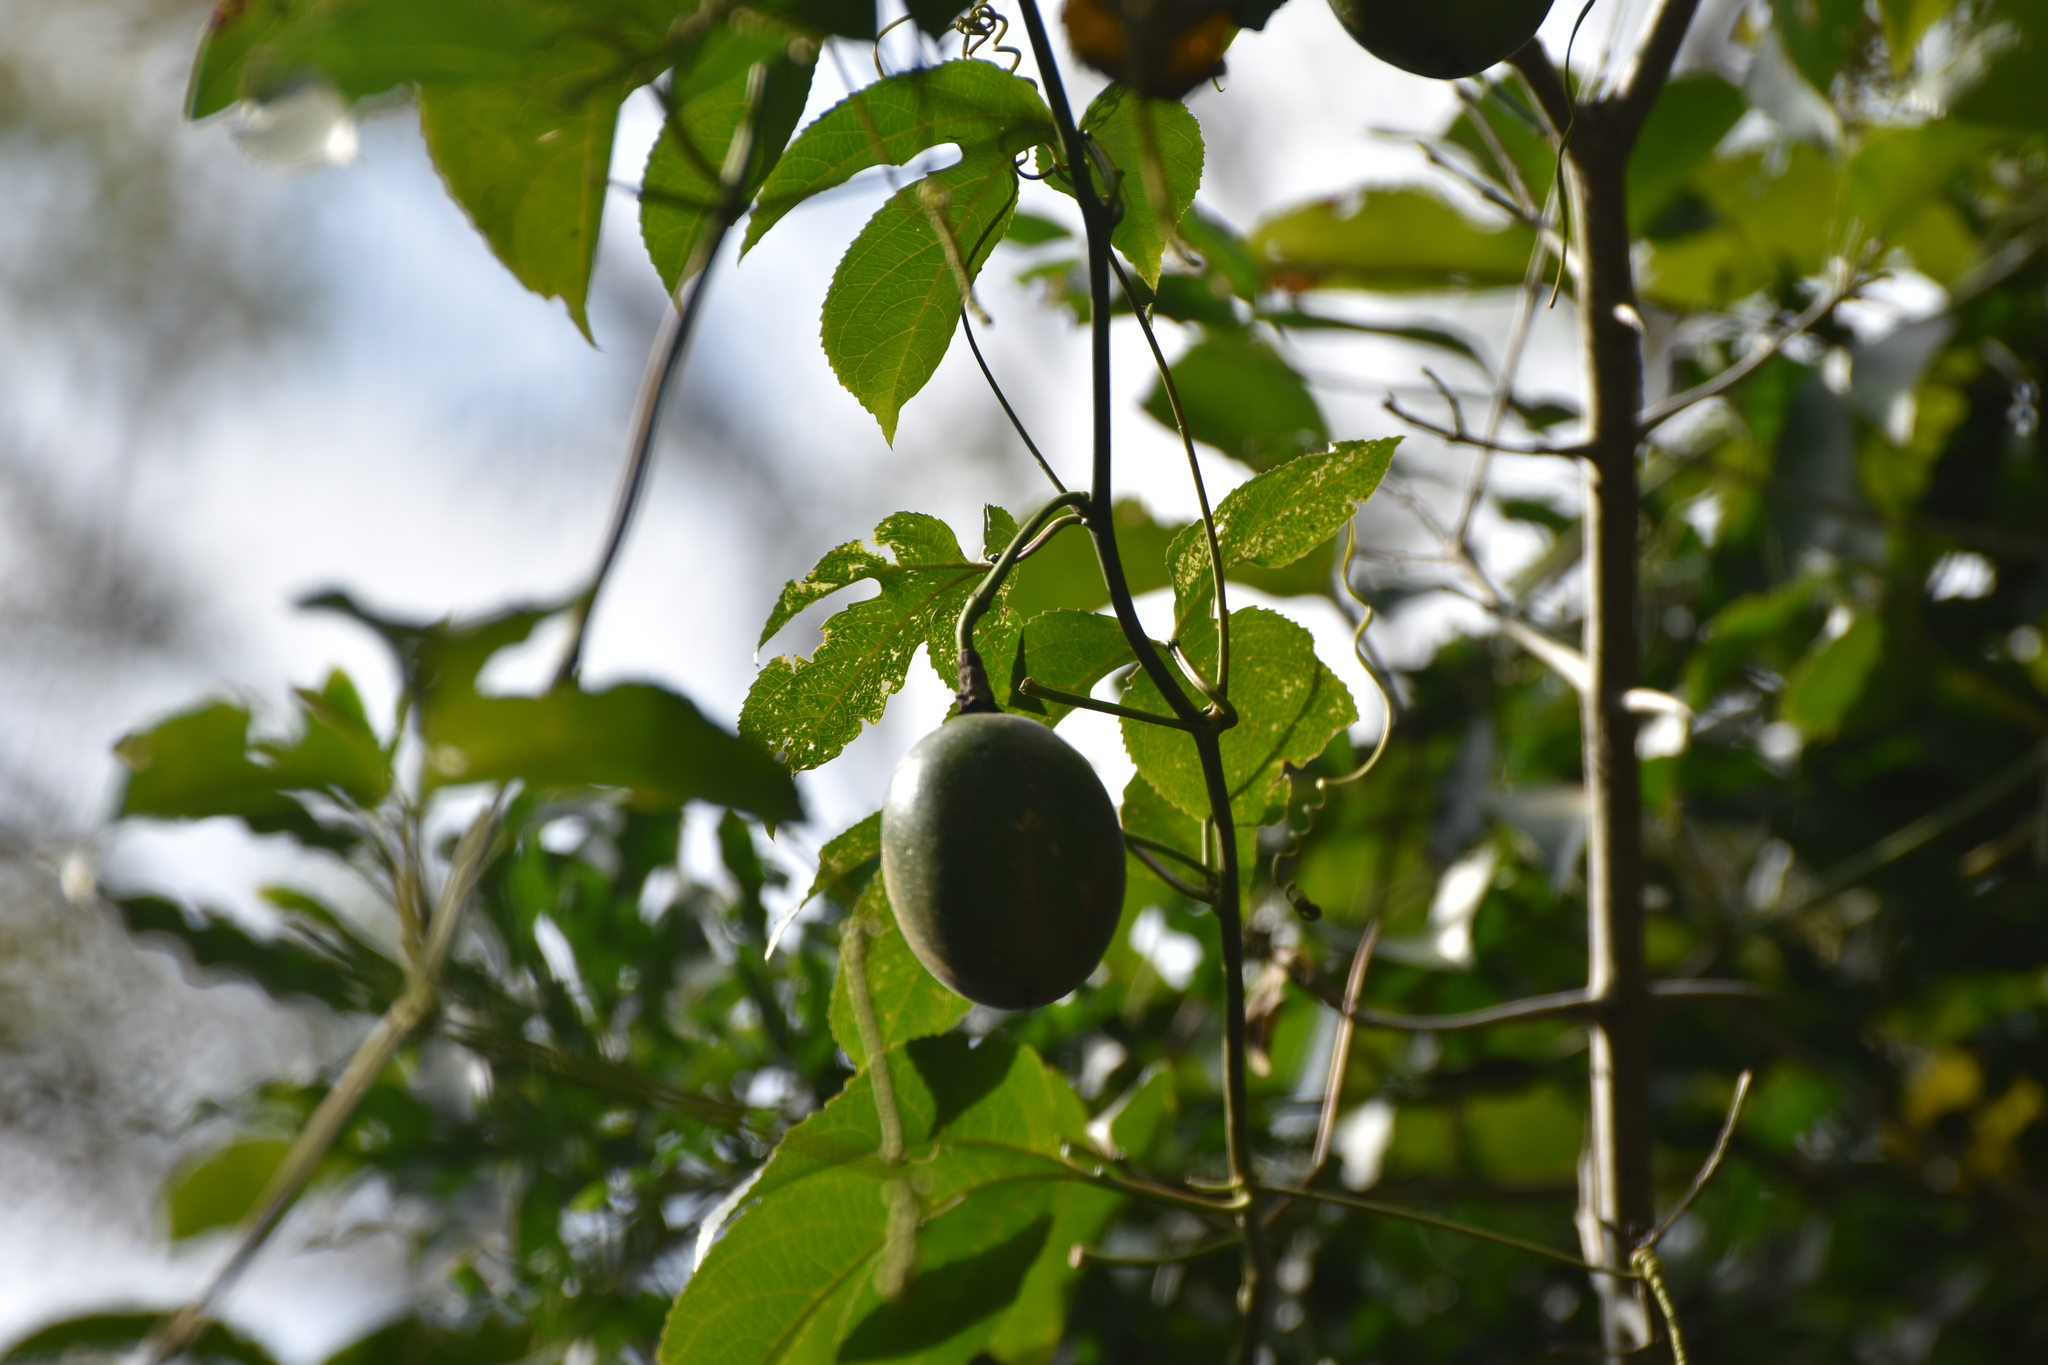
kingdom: Plantae
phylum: Tracheophyta
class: Magnoliopsida
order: Malpighiales
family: Passifloraceae
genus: Passiflora
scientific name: Passiflora edulis
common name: Purple granadilla
